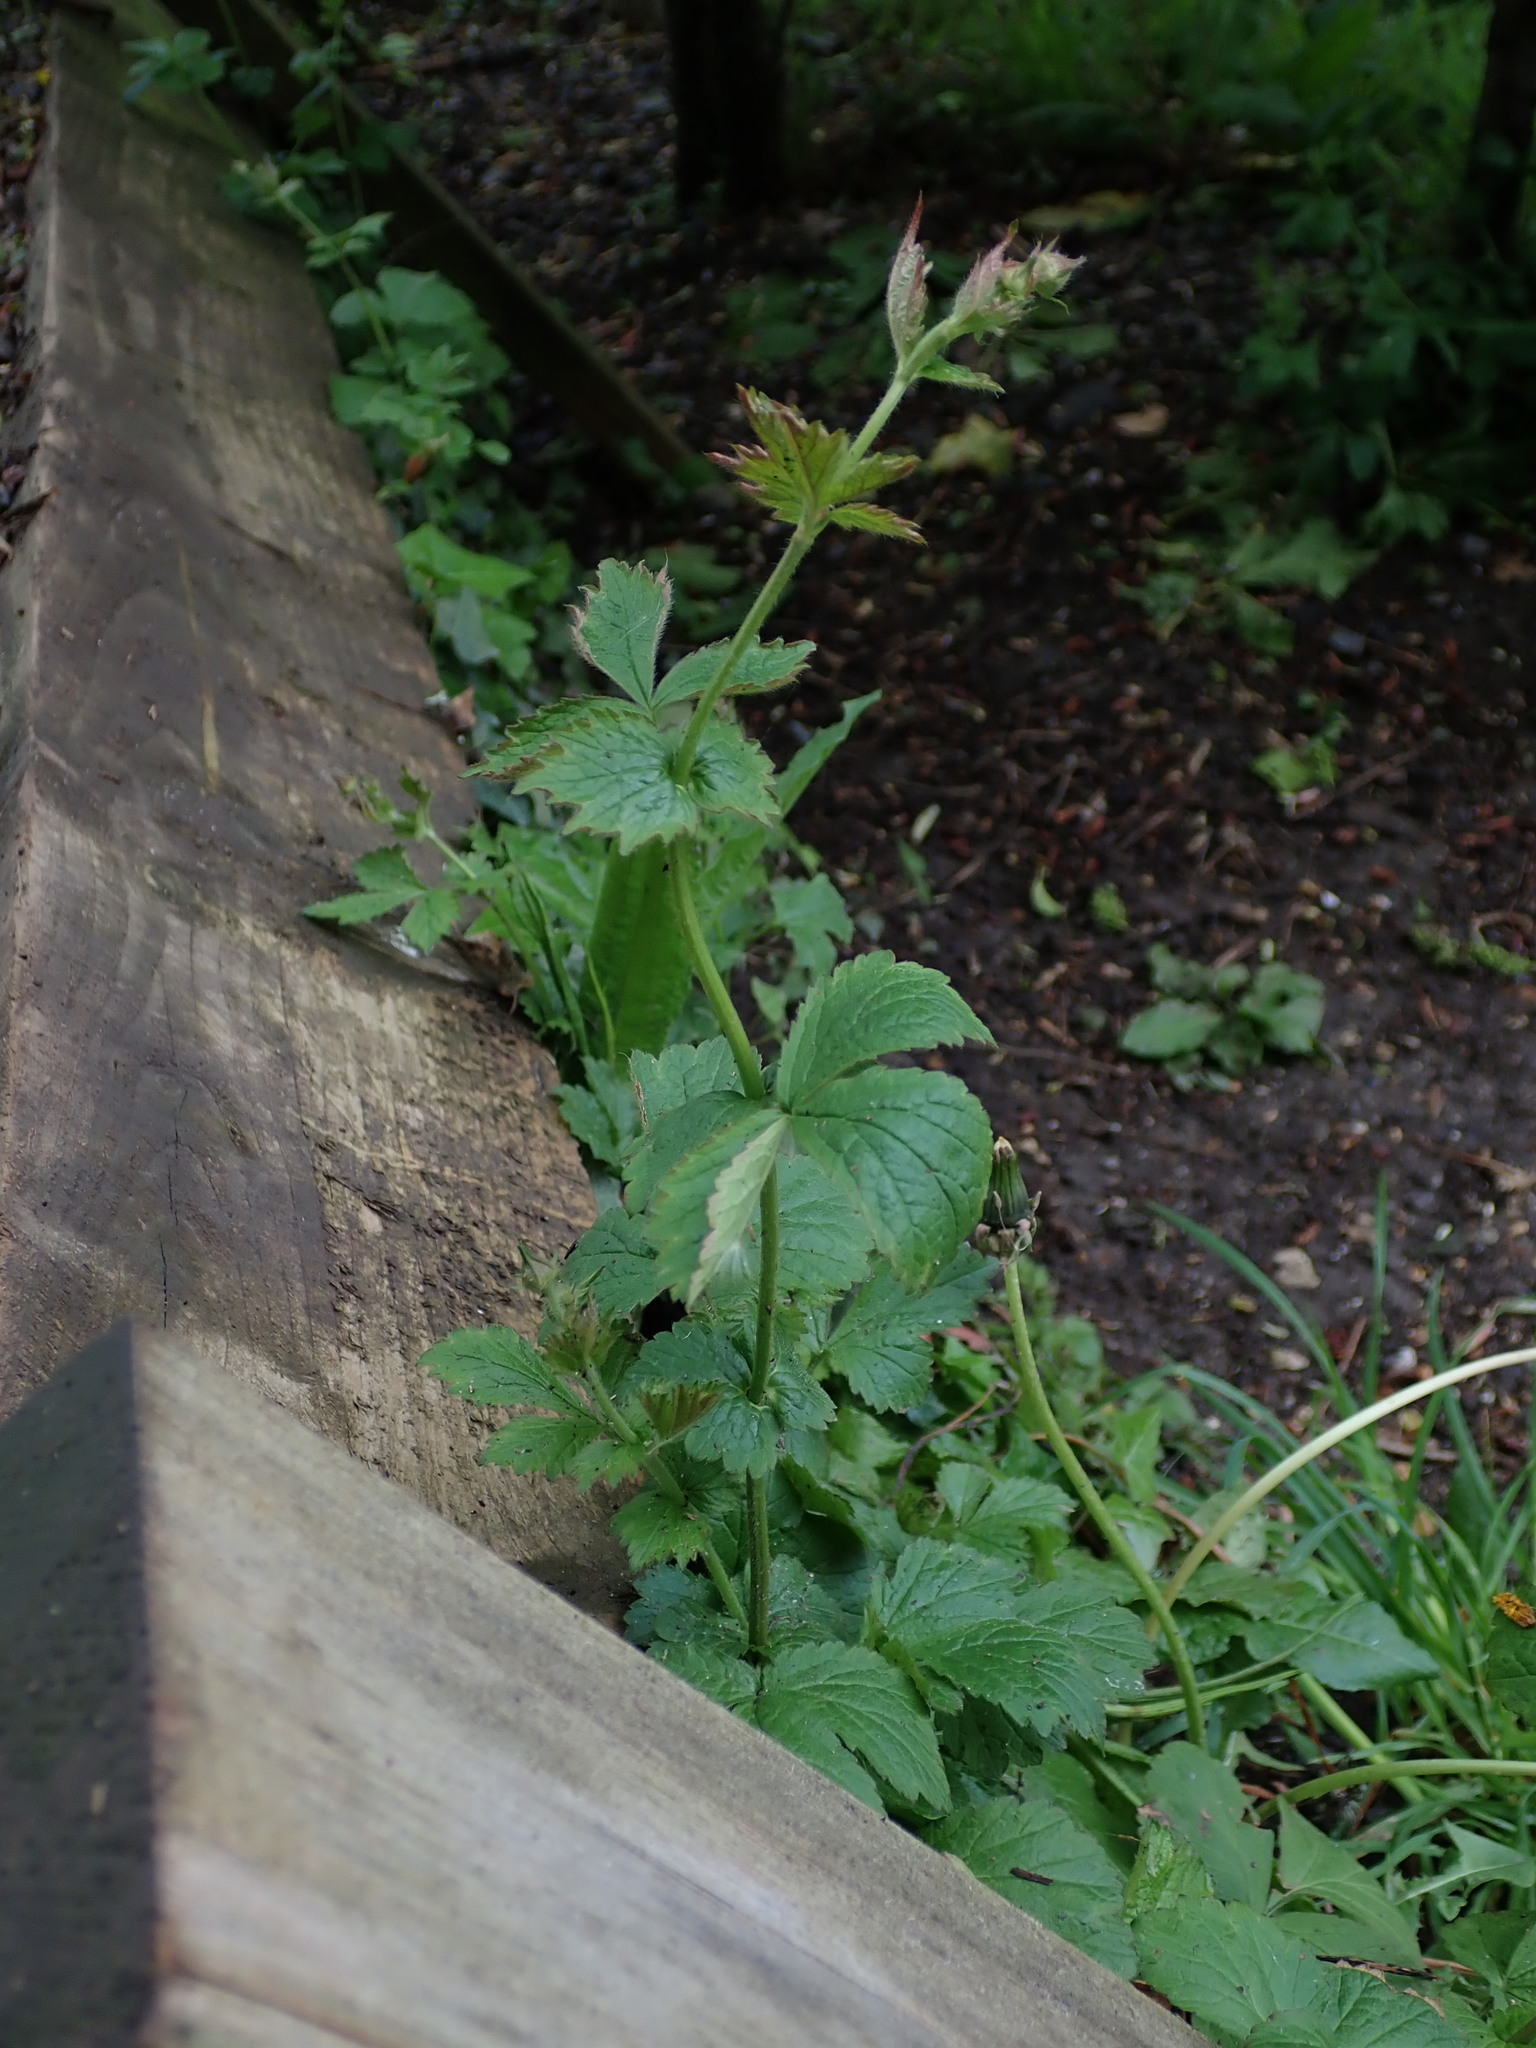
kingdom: Plantae
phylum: Tracheophyta
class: Magnoliopsida
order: Rosales
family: Rosaceae
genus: Geum
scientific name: Geum urbanum
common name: Wood avens
